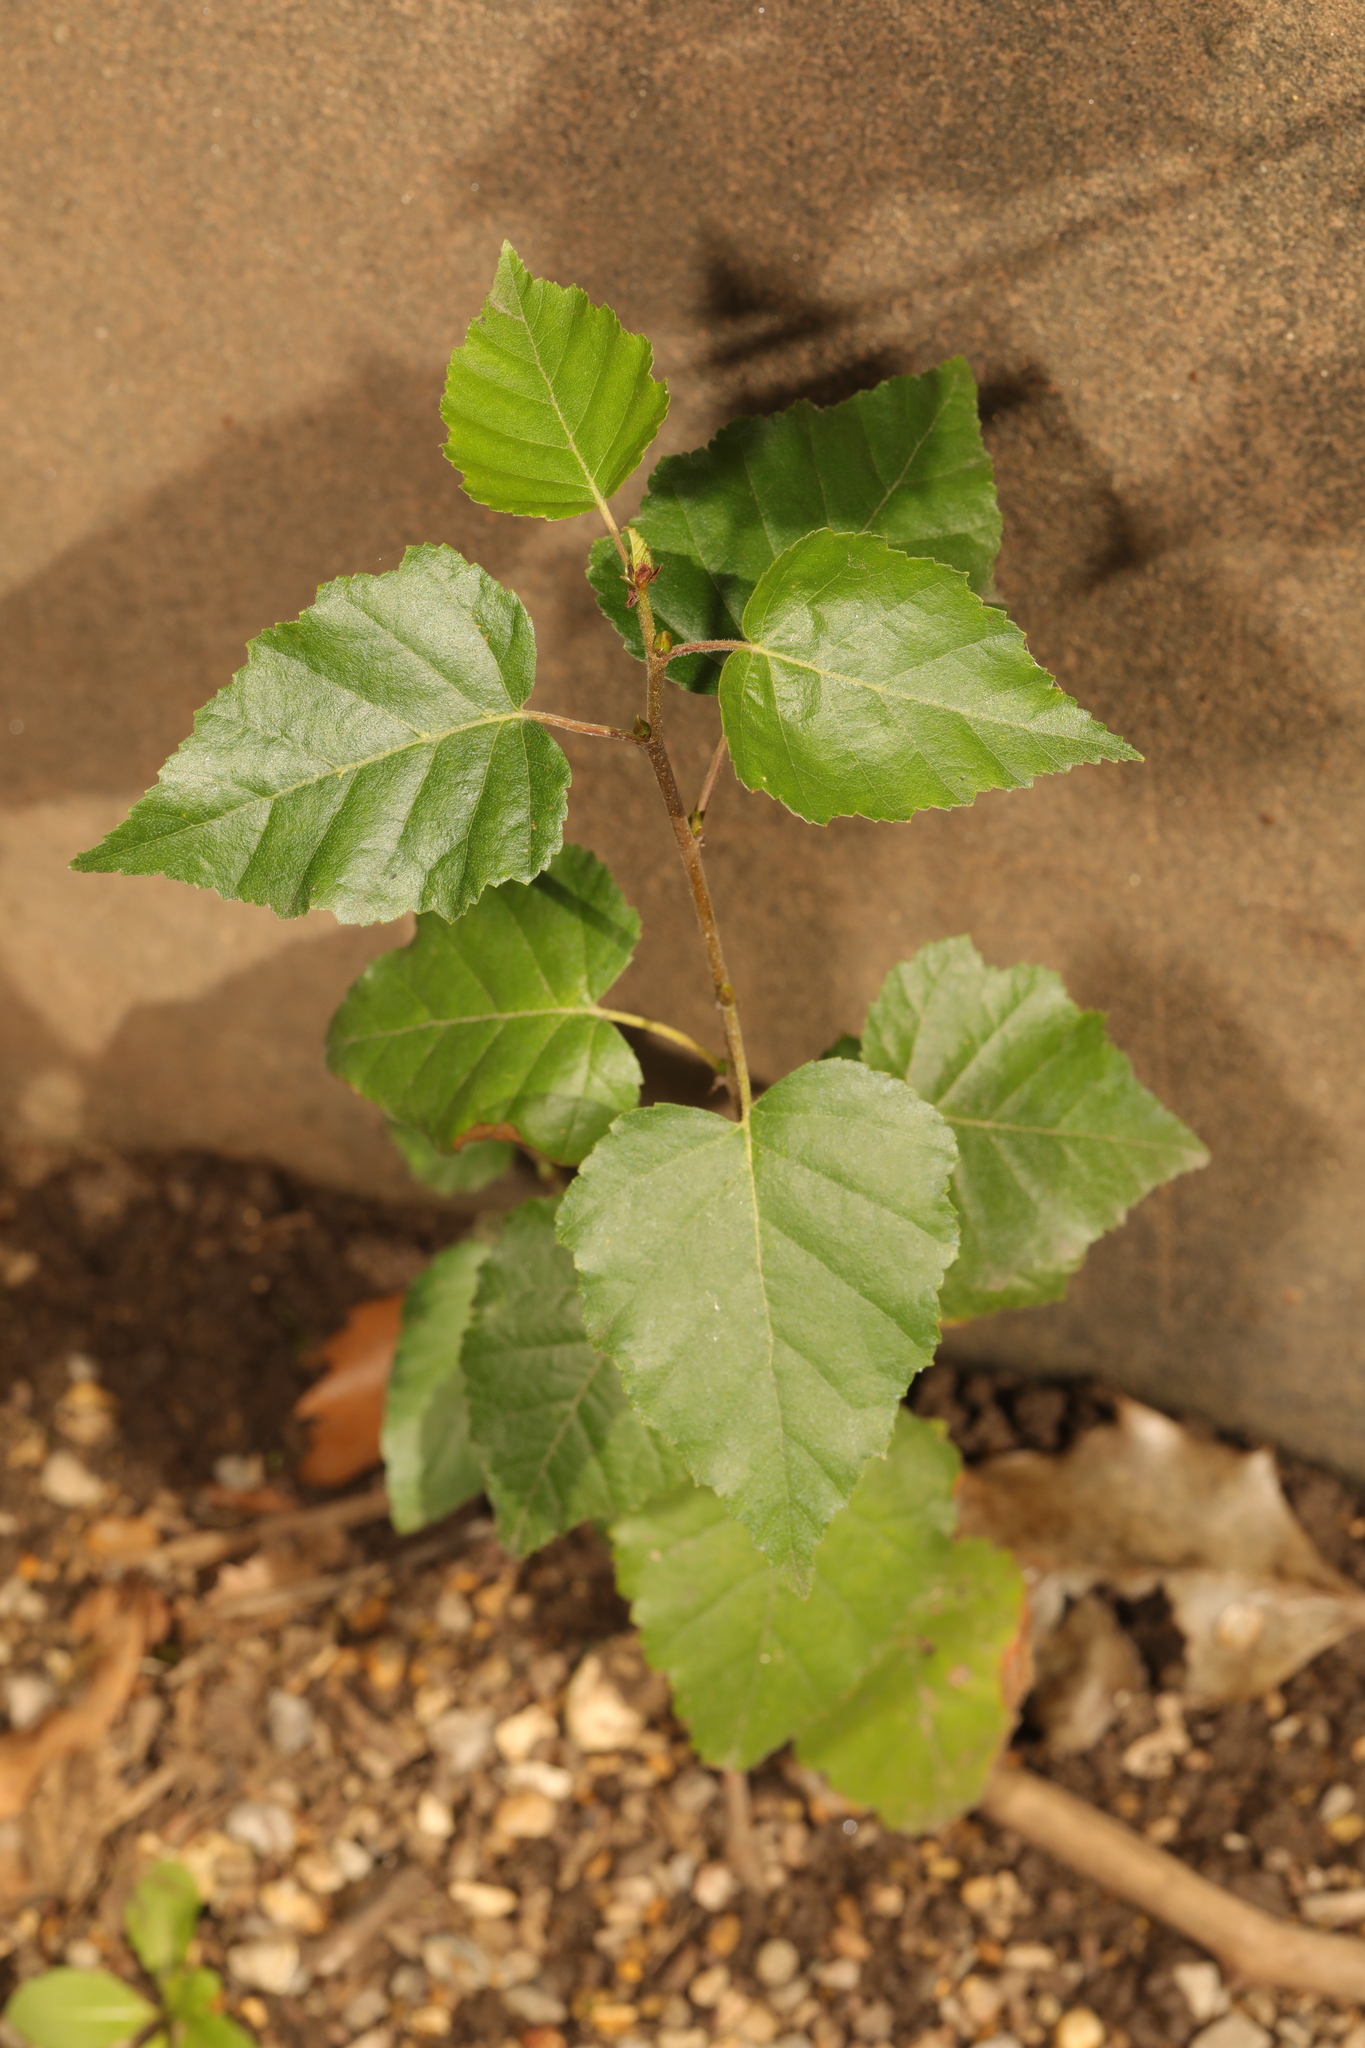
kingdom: Plantae
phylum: Tracheophyta
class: Magnoliopsida
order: Fagales
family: Betulaceae
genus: Betula
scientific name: Betula pendula
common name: Silver birch
